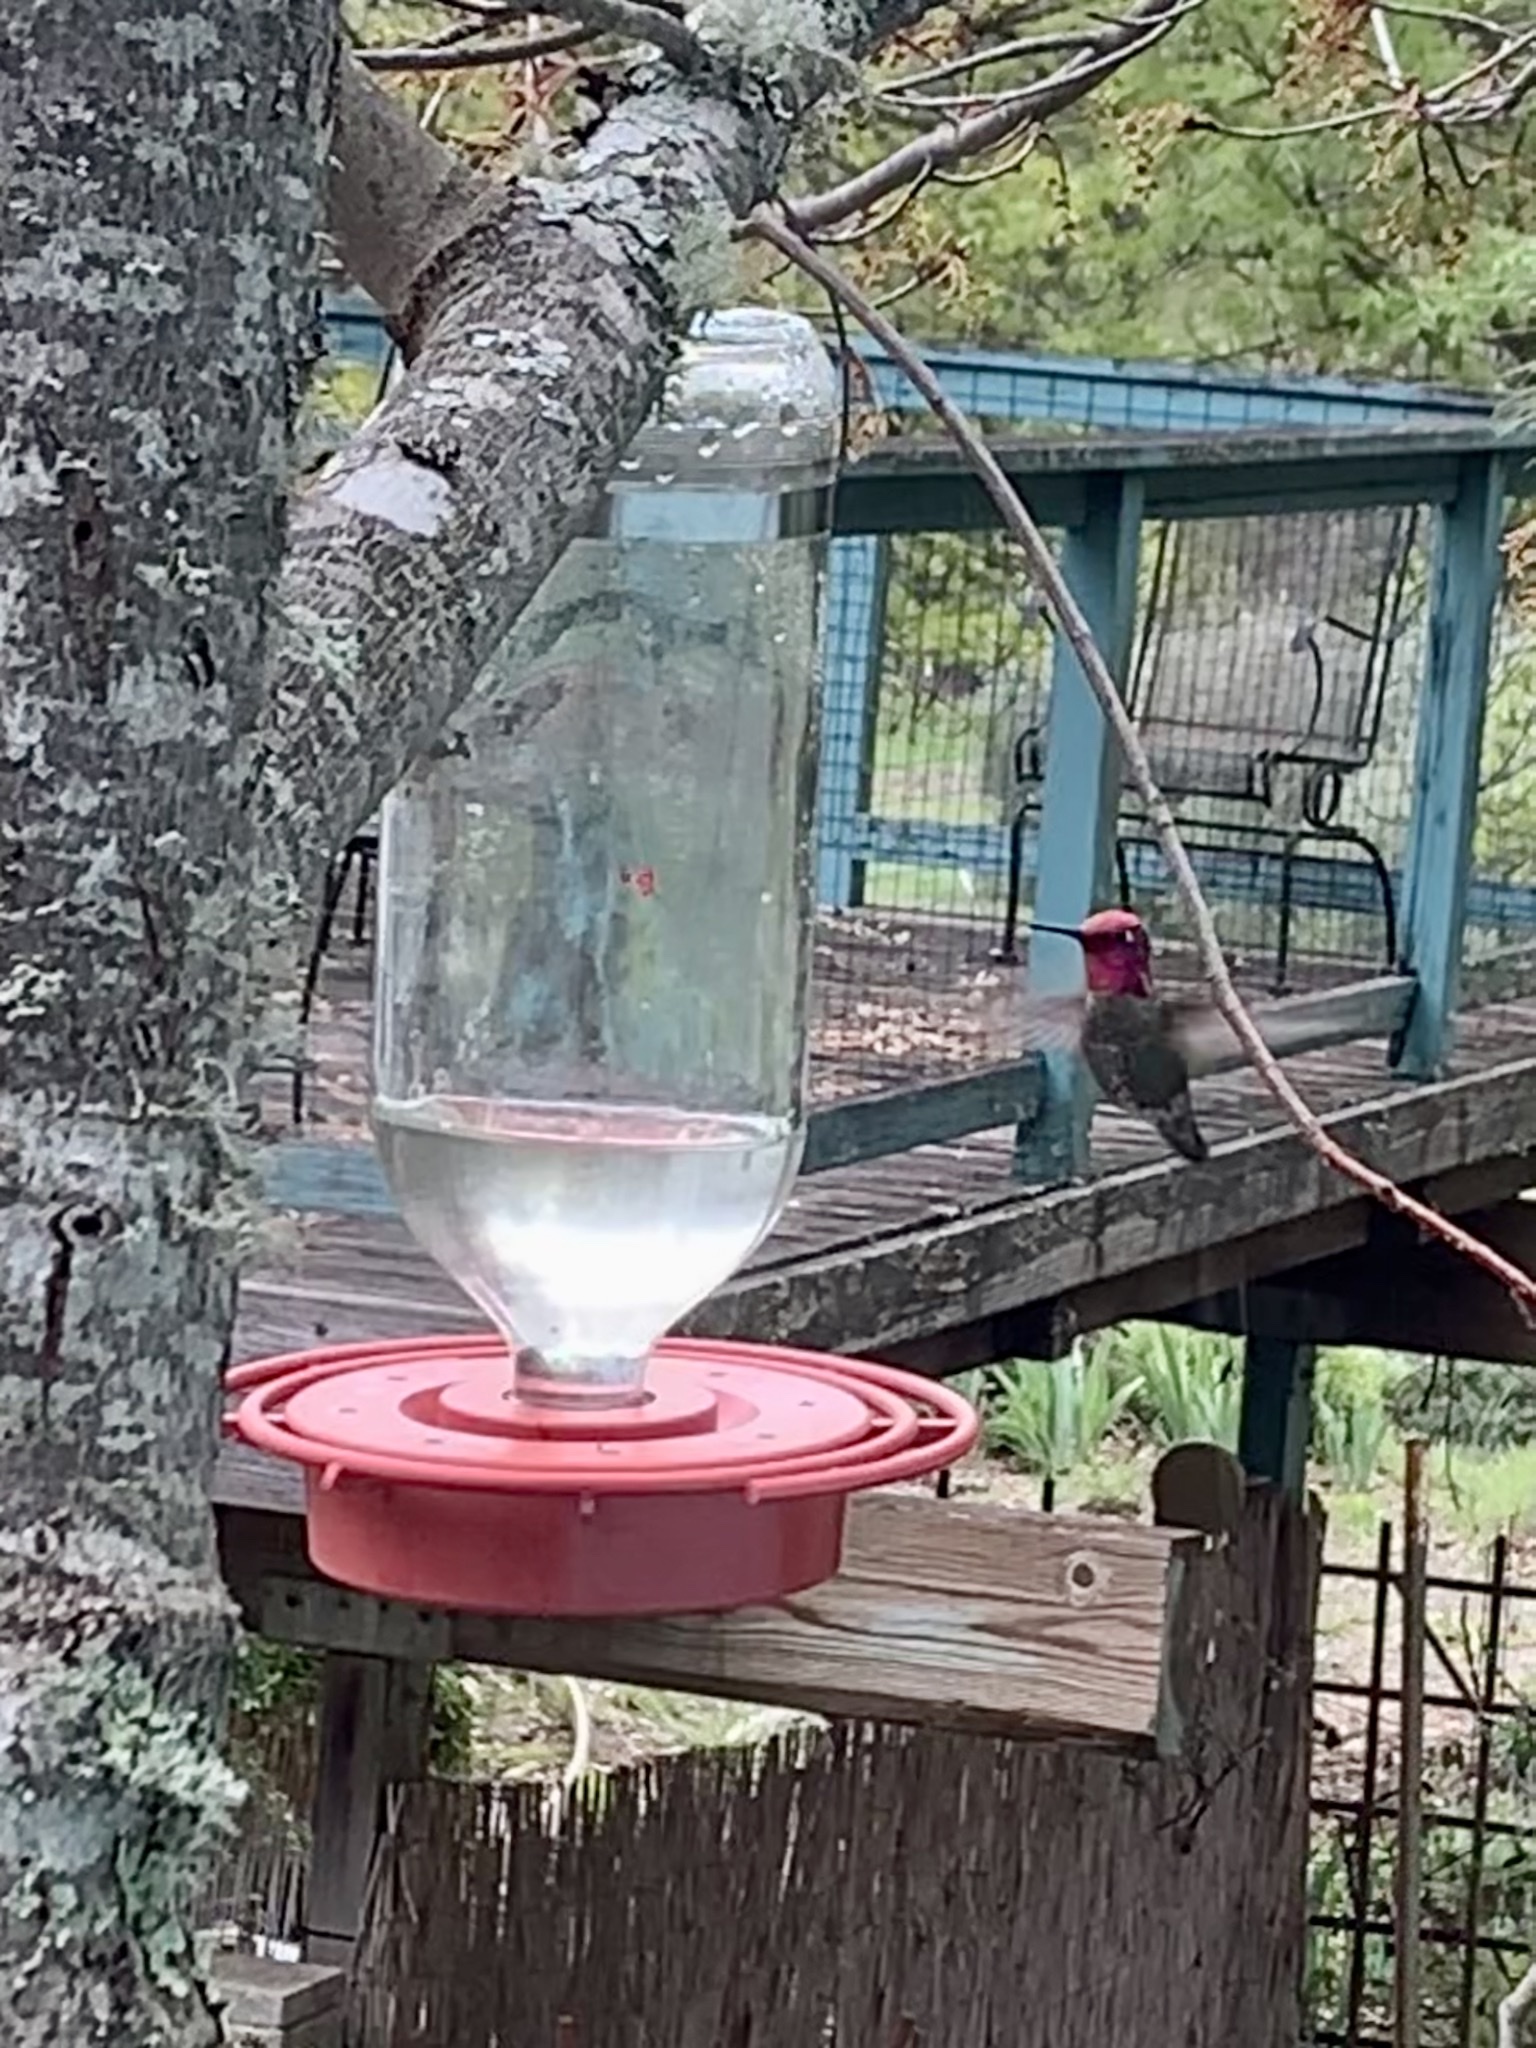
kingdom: Animalia
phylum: Chordata
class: Aves
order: Apodiformes
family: Trochilidae
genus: Calypte
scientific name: Calypte anna
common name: Anna's hummingbird
